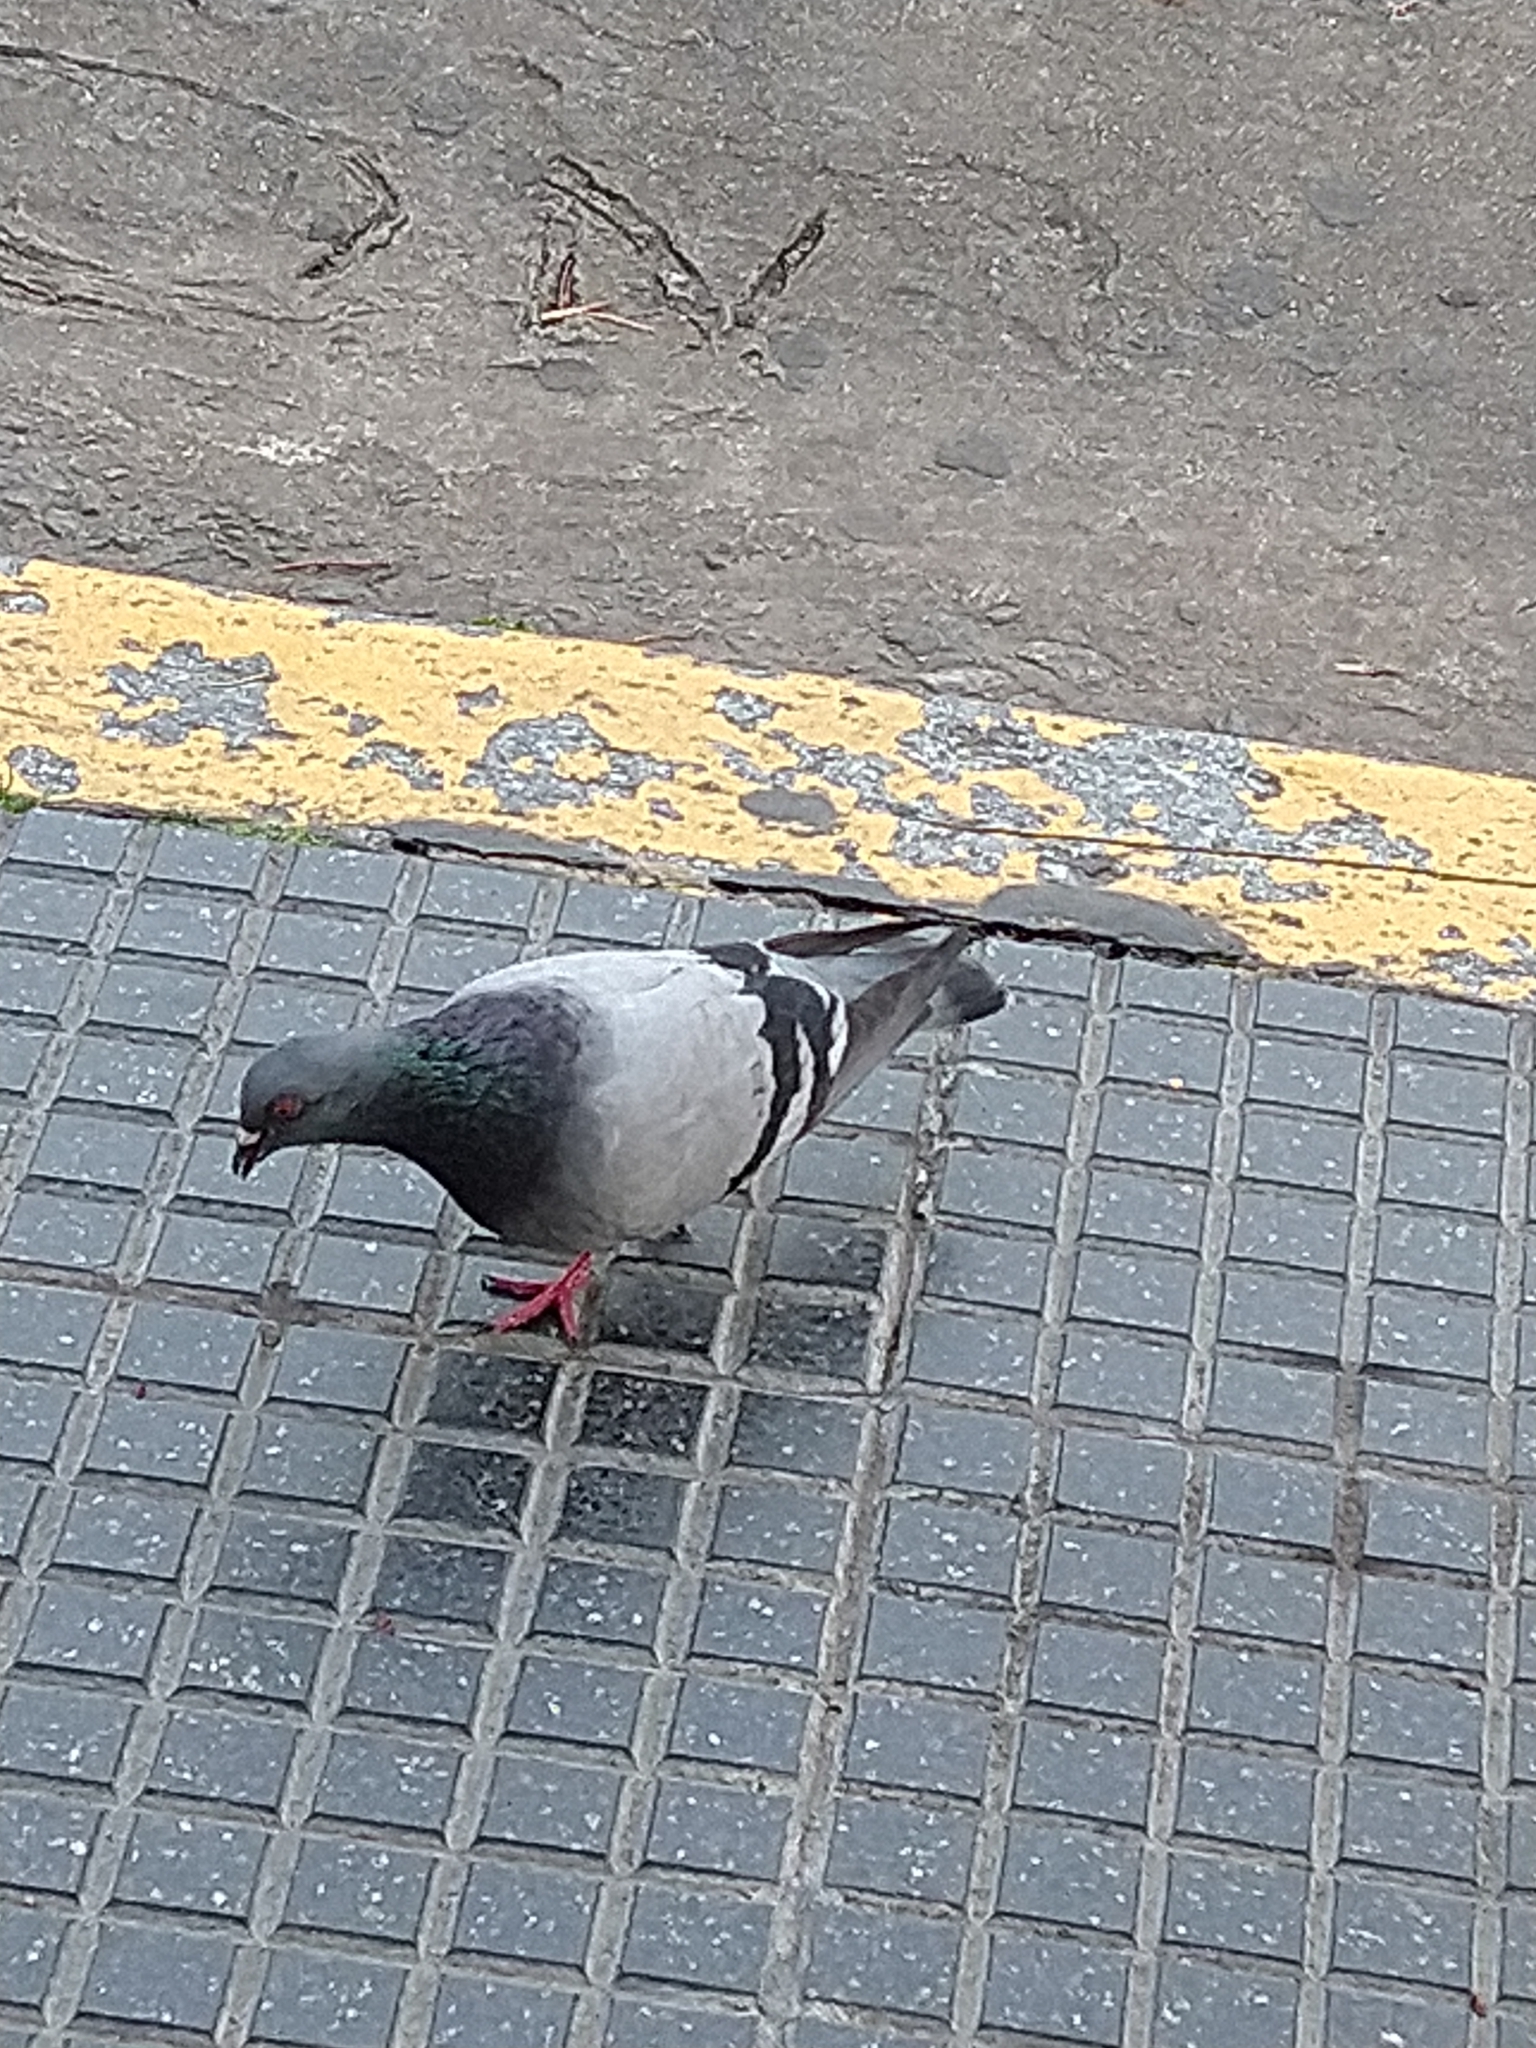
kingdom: Animalia
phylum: Chordata
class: Aves
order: Columbiformes
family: Columbidae
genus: Columba
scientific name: Columba livia
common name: Rock pigeon
